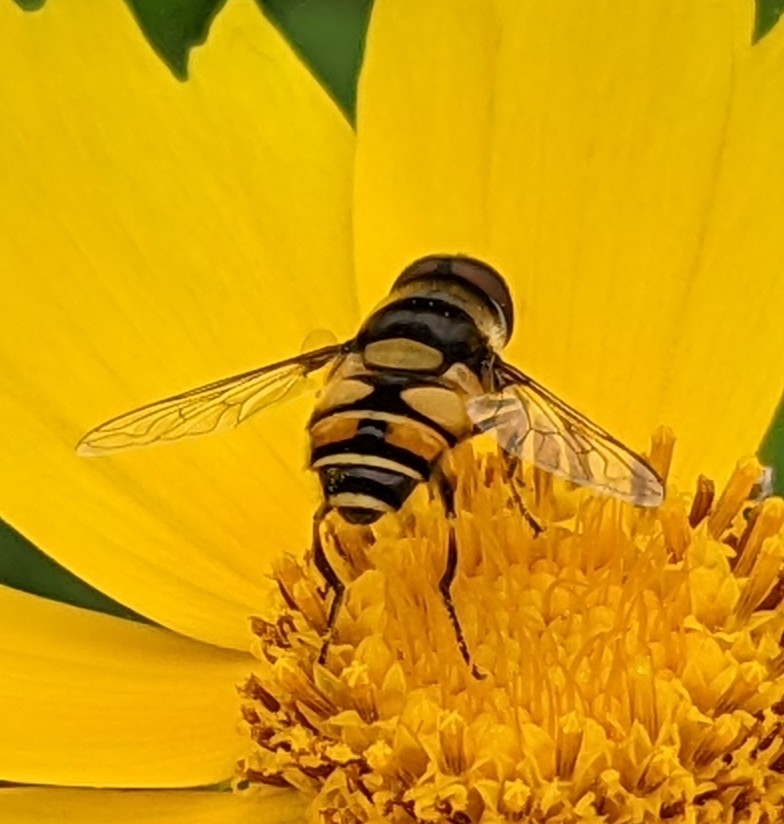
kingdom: Animalia
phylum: Arthropoda
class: Insecta
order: Diptera
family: Syrphidae
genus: Eristalis
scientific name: Eristalis transversa
